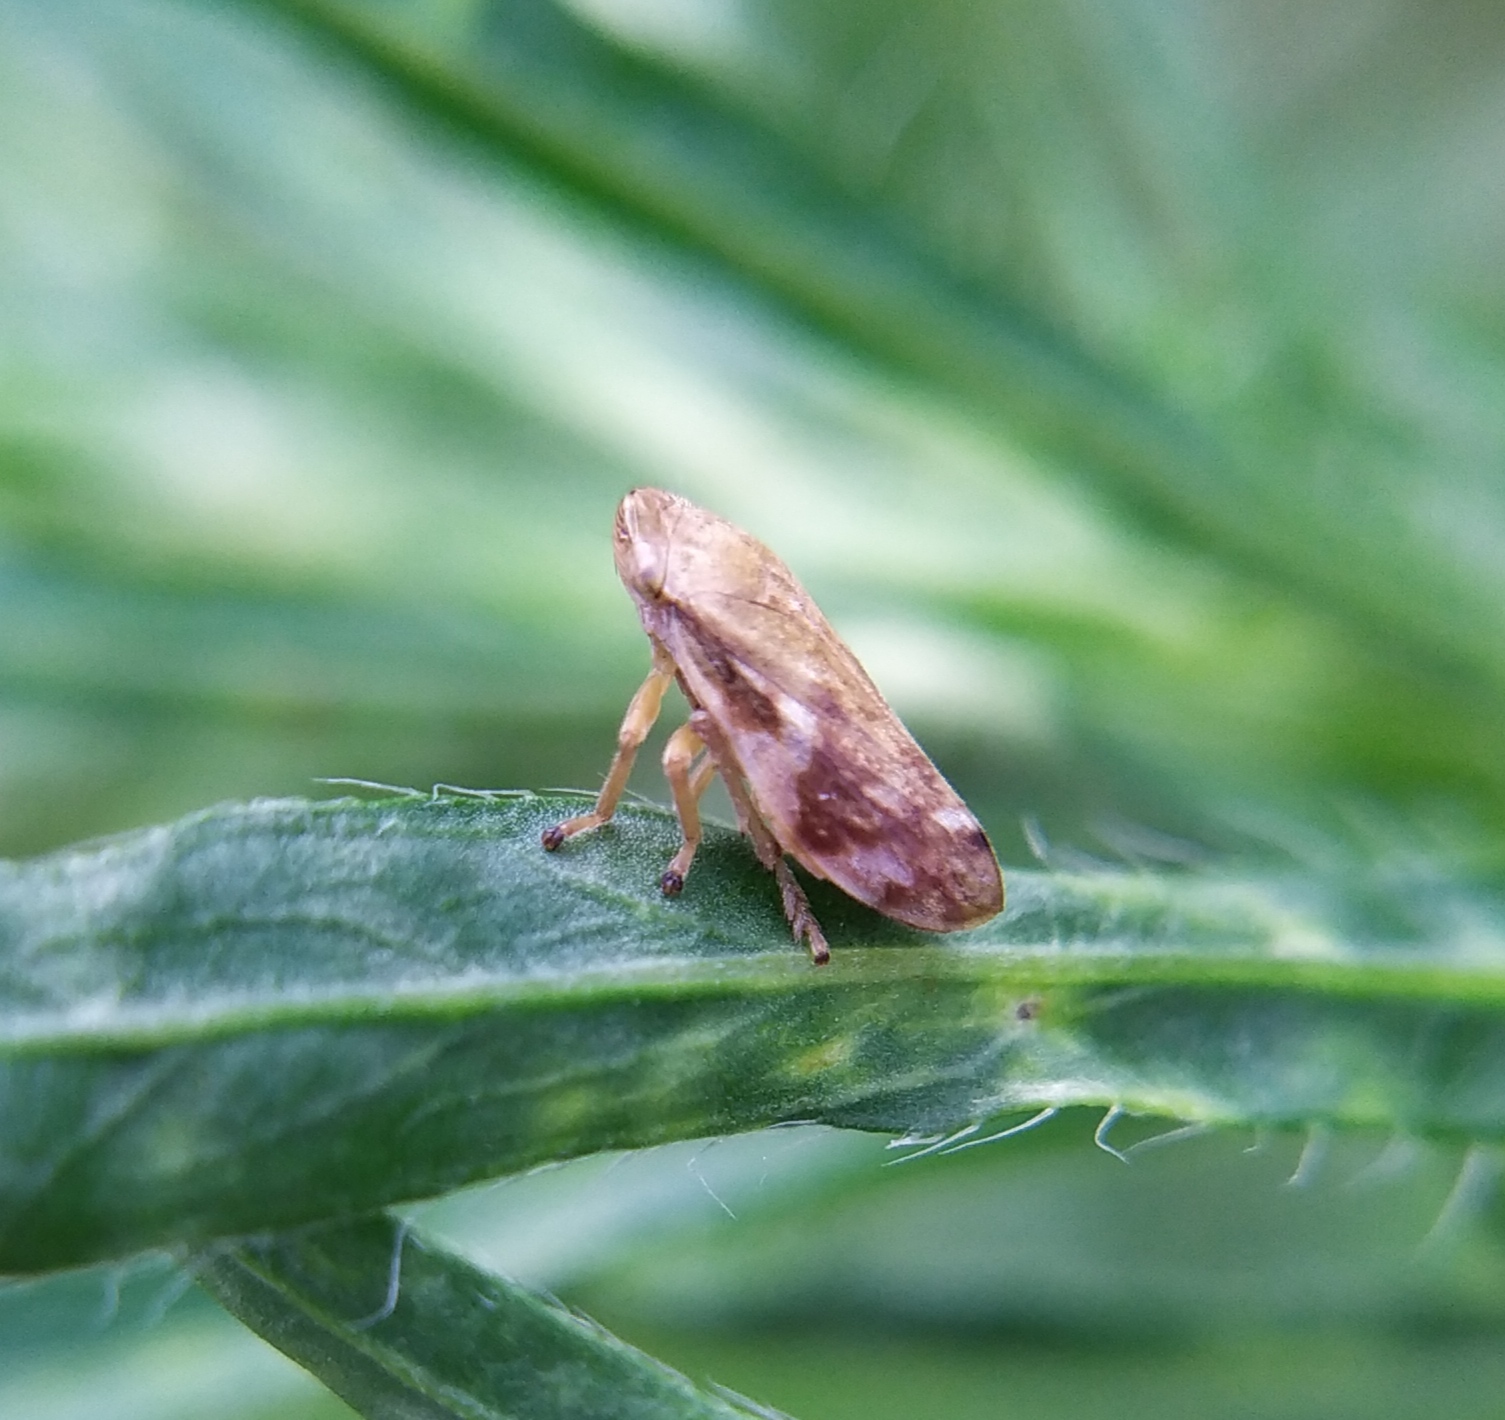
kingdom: Animalia
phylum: Arthropoda
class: Insecta
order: Hemiptera
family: Aphrophoridae
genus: Philaenus
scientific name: Philaenus spumarius
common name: Meadow spittlebug
